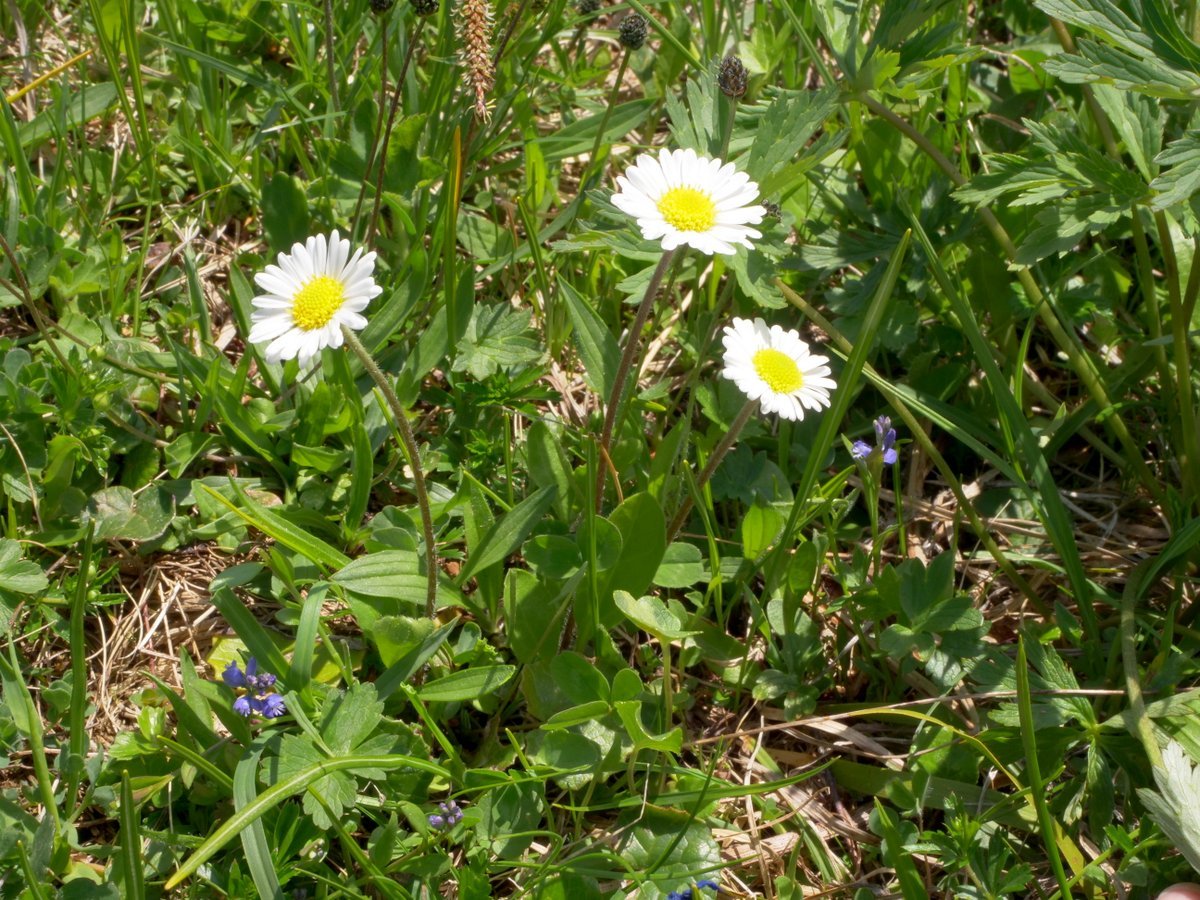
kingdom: Plantae
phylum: Tracheophyta
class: Magnoliopsida
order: Asterales
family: Asteraceae
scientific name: Asteraceae
